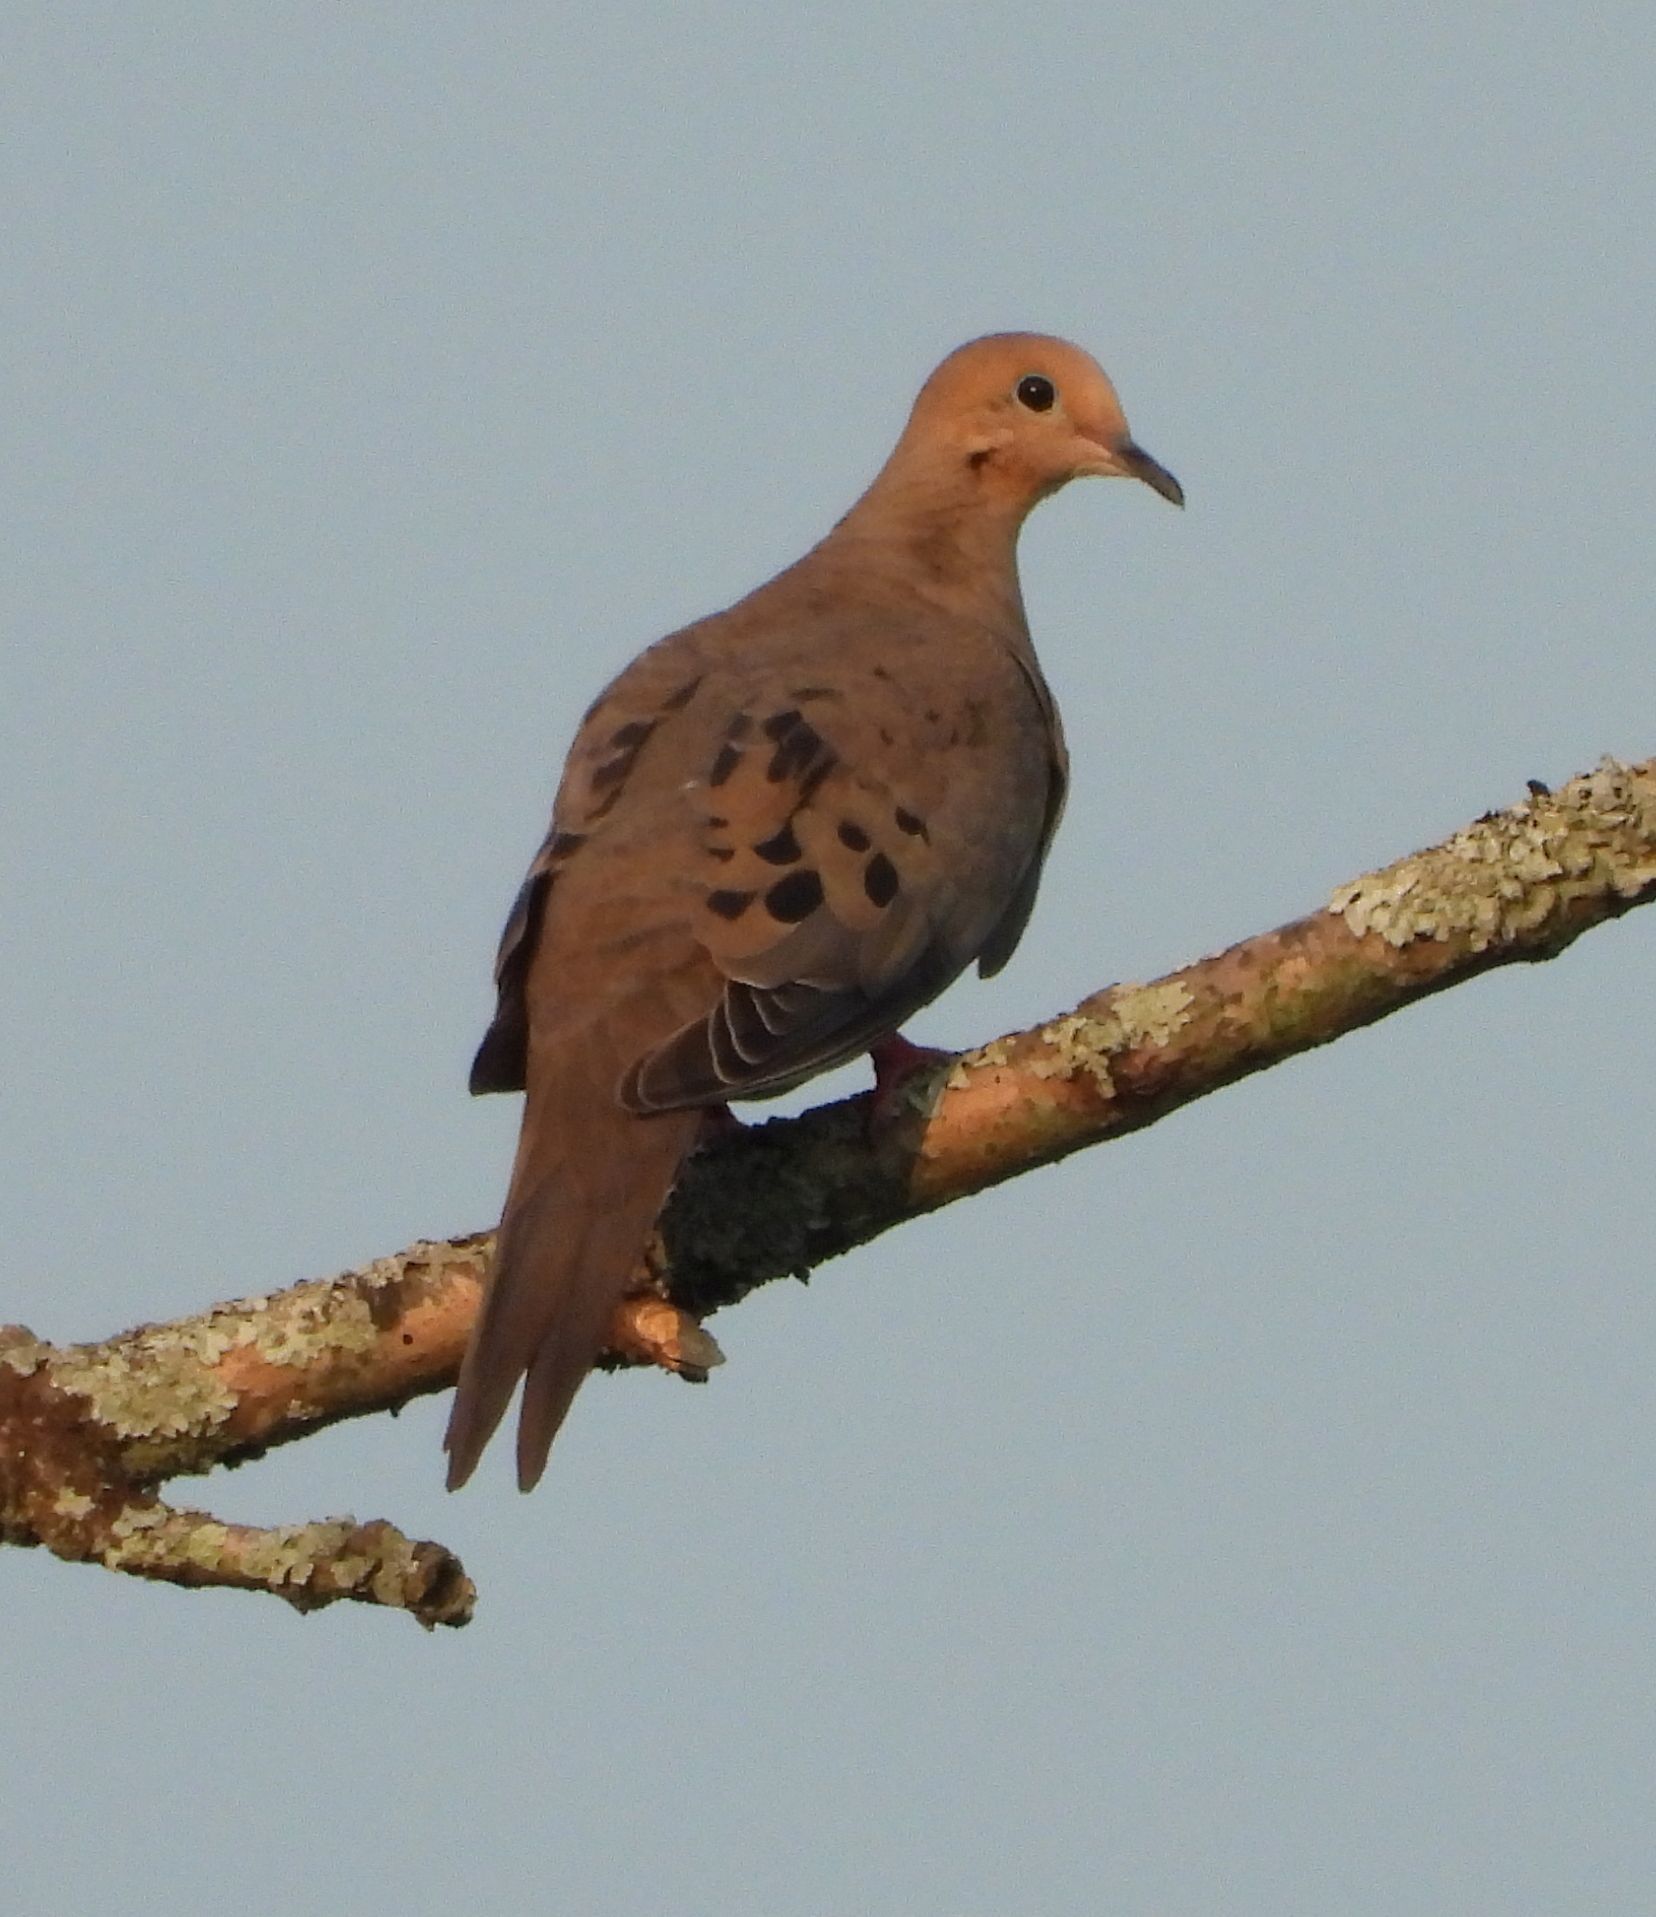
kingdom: Animalia
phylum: Chordata
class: Aves
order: Columbiformes
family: Columbidae
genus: Zenaida
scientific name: Zenaida macroura
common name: Mourning dove
